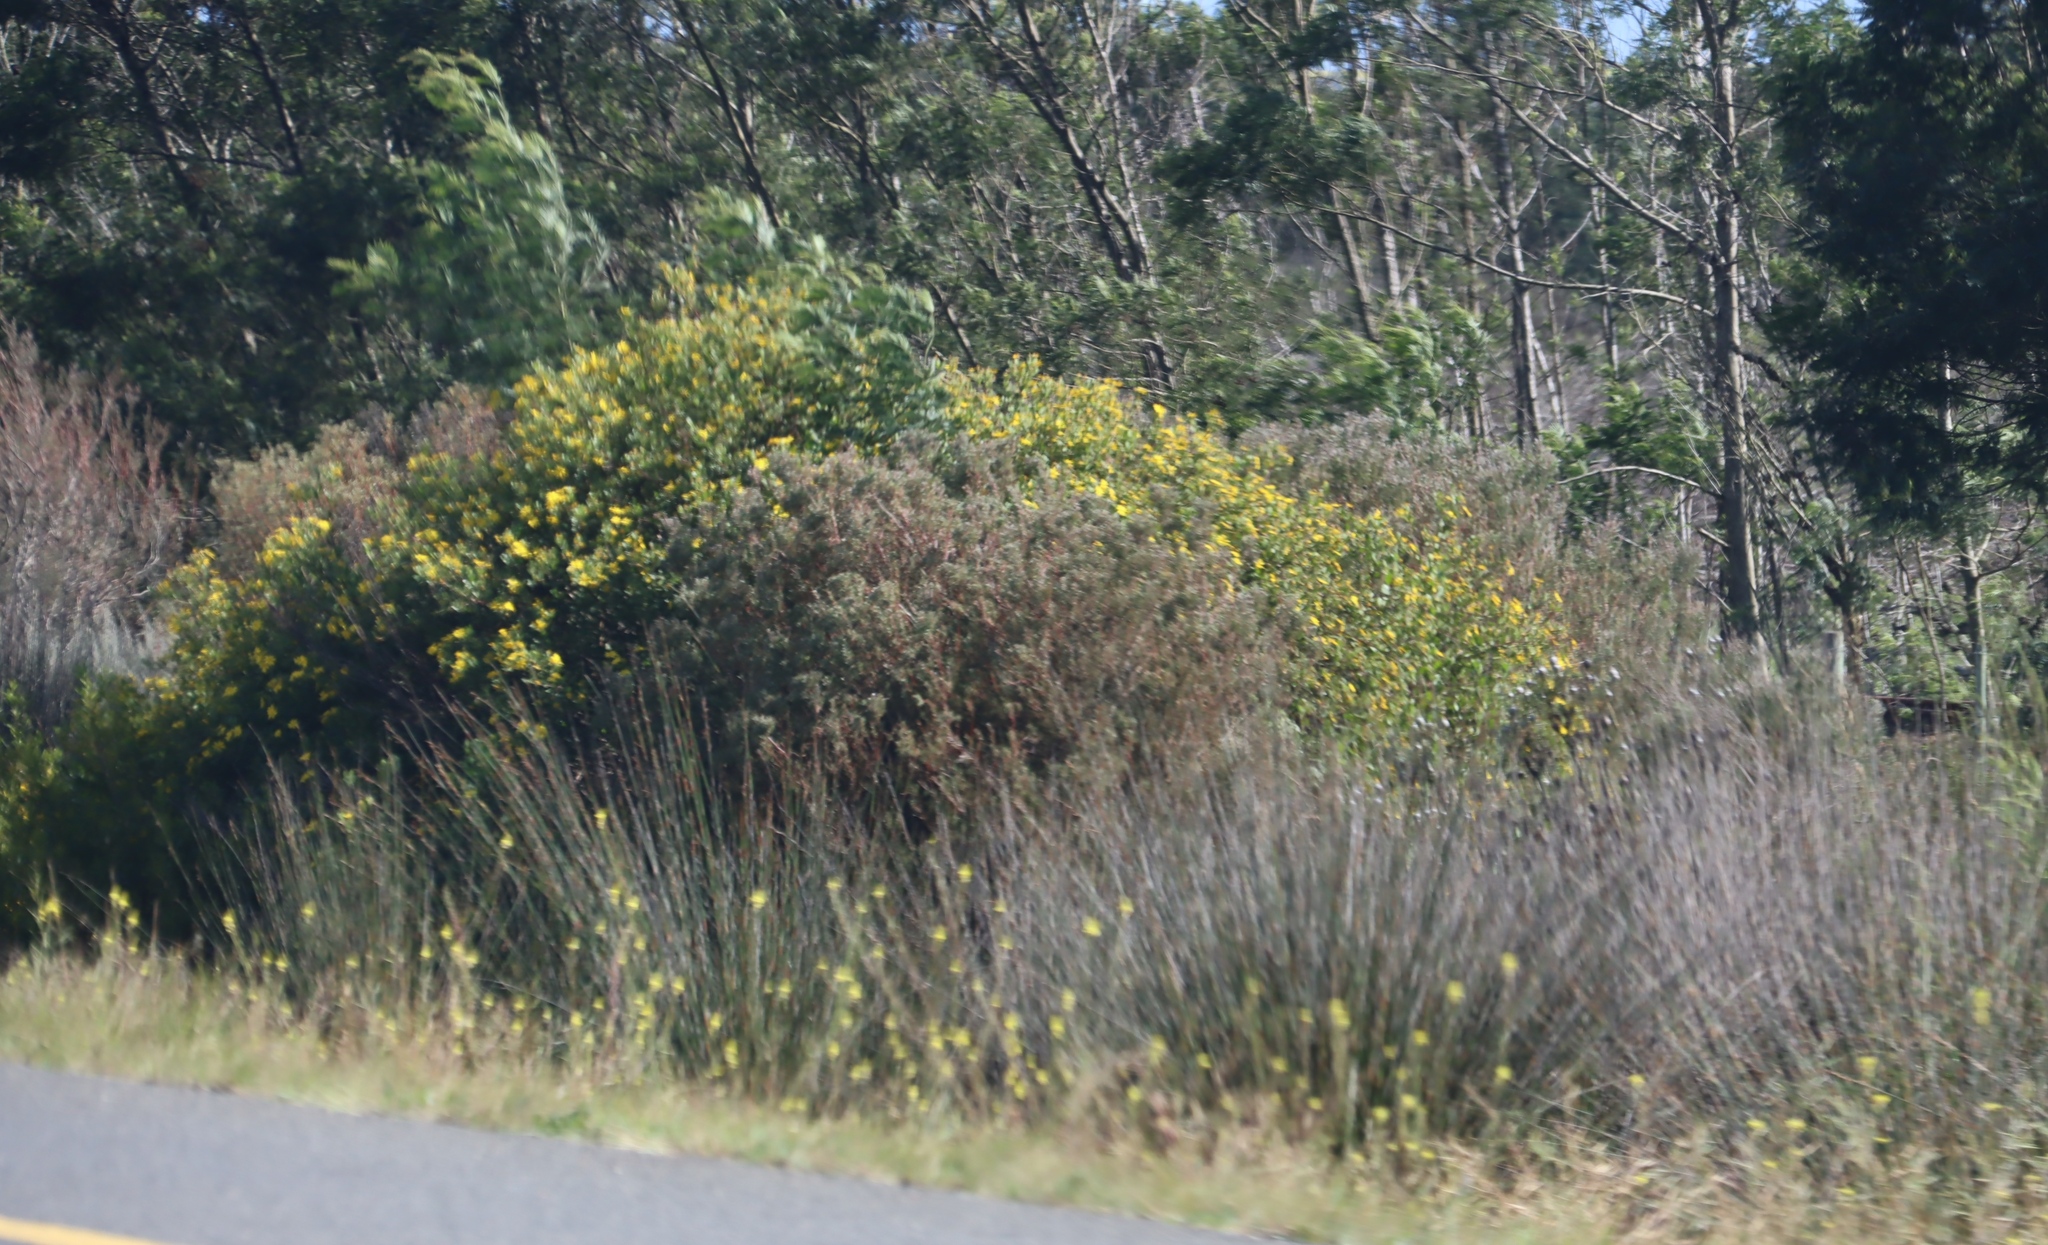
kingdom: Plantae
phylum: Tracheophyta
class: Magnoliopsida
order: Asterales
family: Asteraceae
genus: Osteospermum
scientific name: Osteospermum moniliferum
